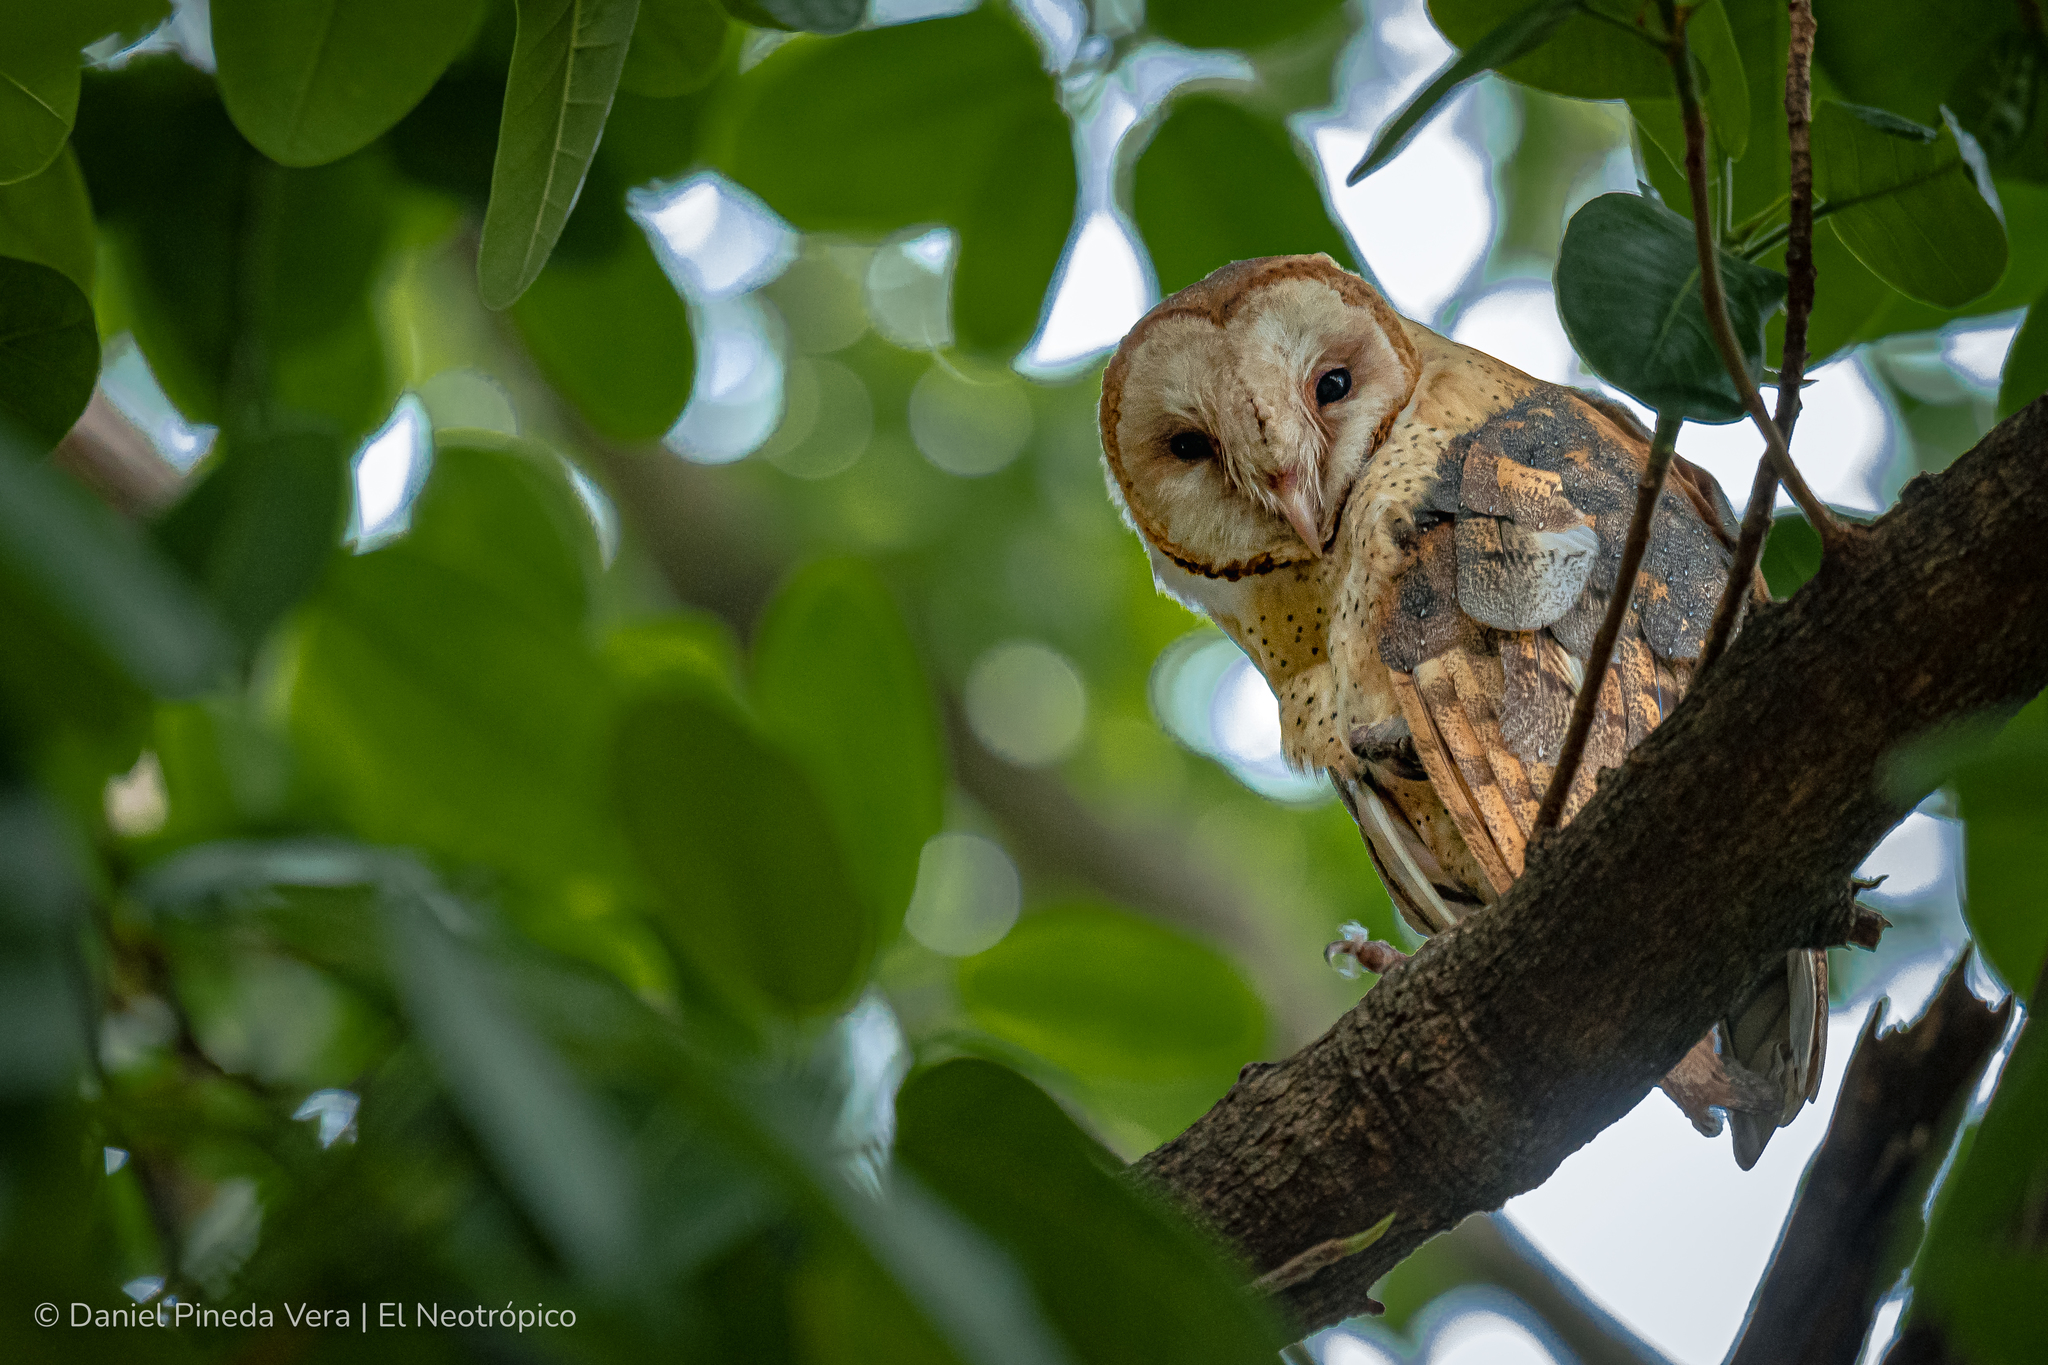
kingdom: Animalia
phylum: Chordata
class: Aves
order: Strigiformes
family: Tytonidae
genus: Tyto
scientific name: Tyto alba
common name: Barn owl
